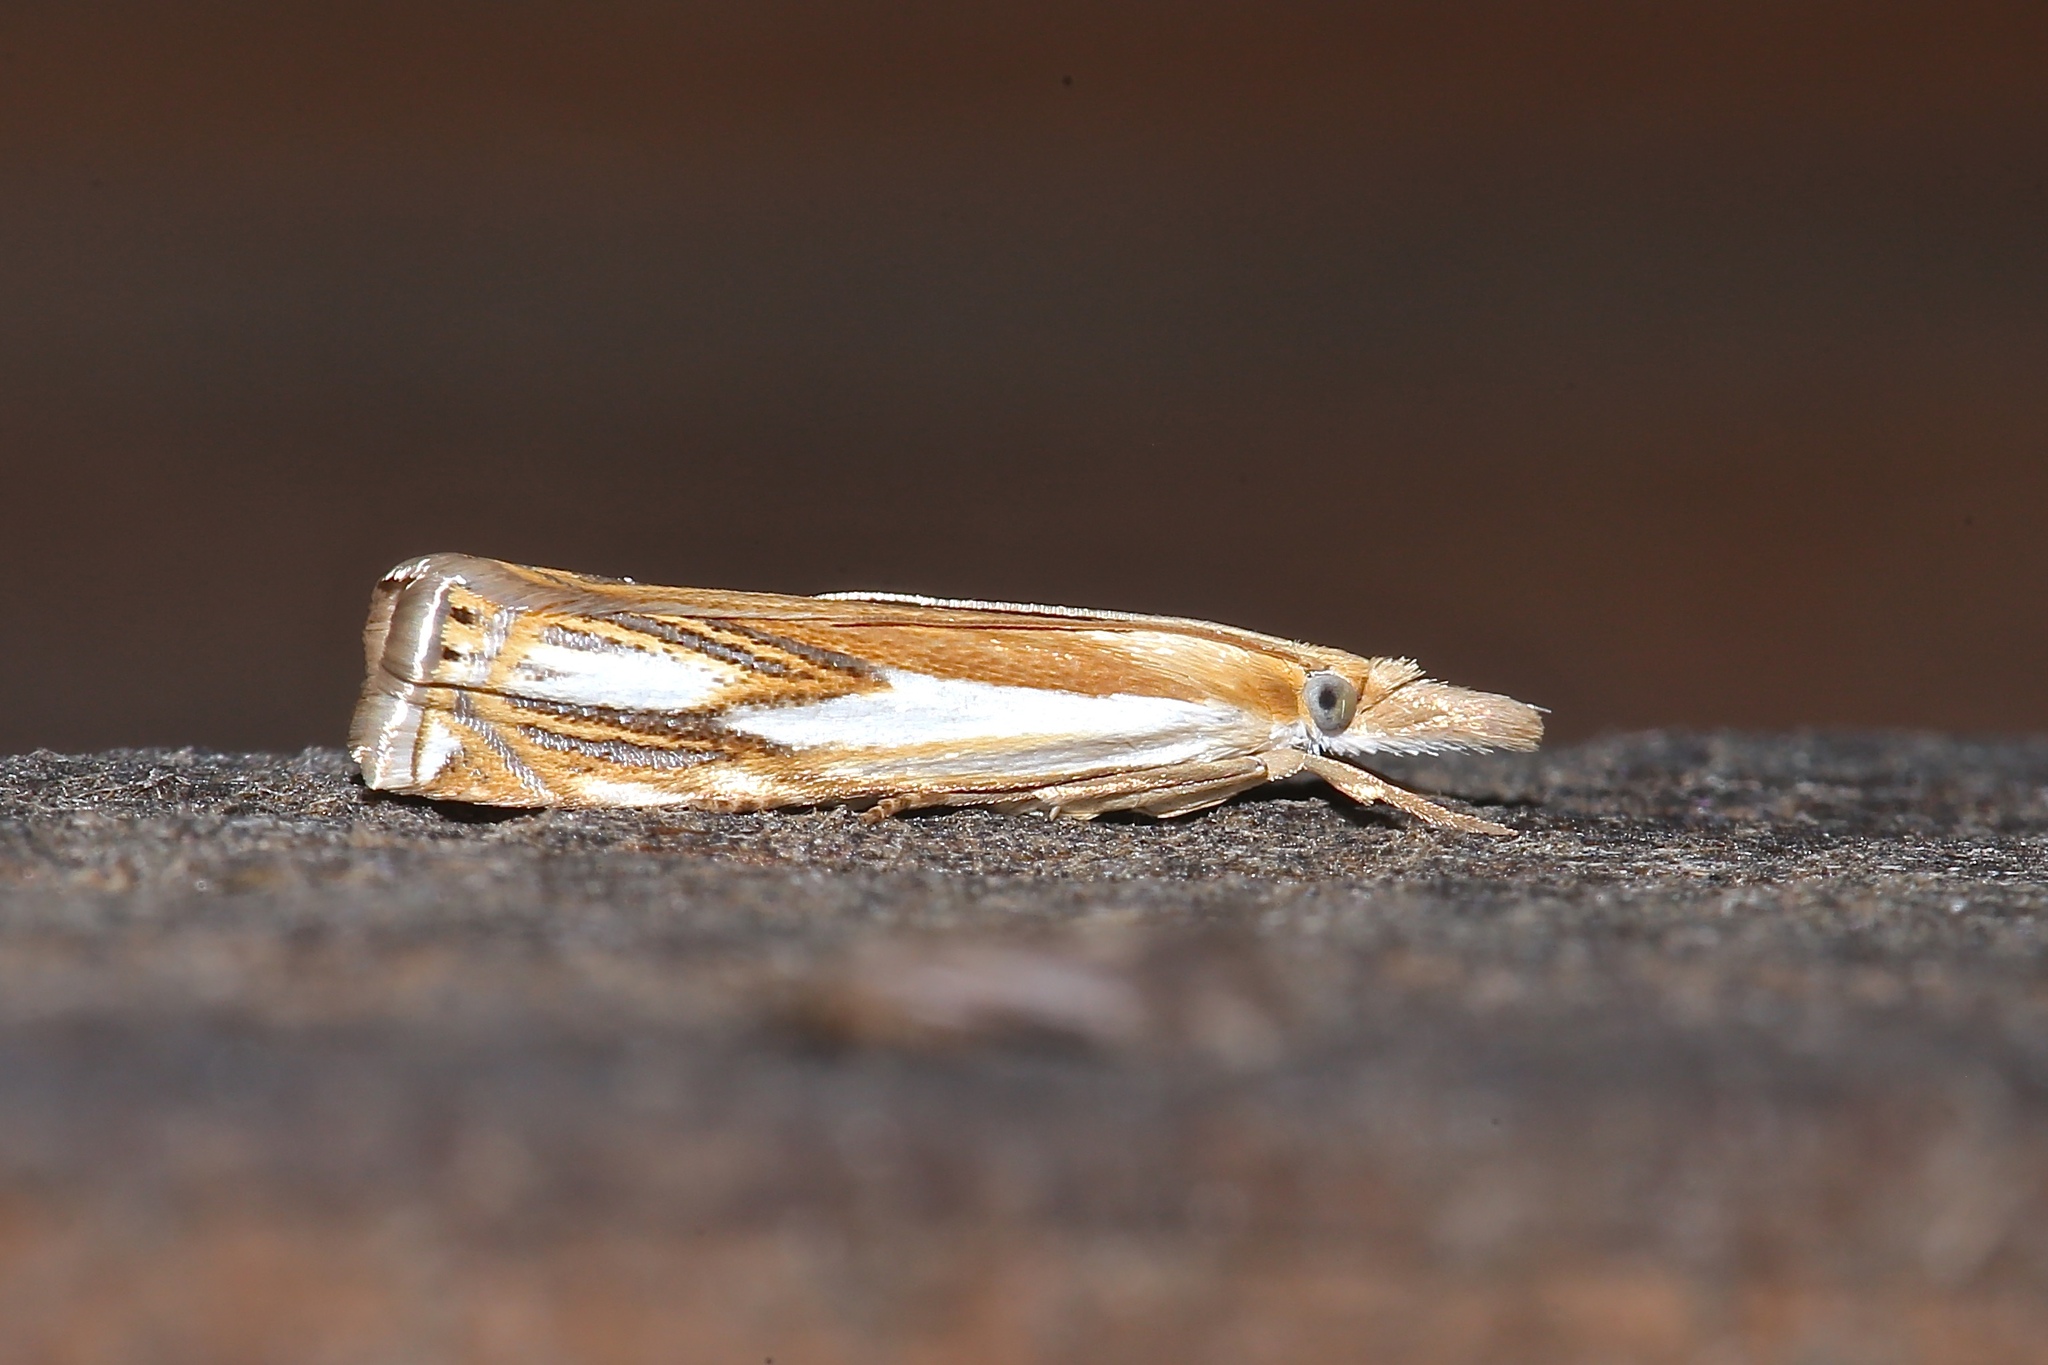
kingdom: Animalia
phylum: Arthropoda
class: Insecta
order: Lepidoptera
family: Crambidae
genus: Crambus
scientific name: Crambus agitatellus
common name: Double-banded grass-veneer
